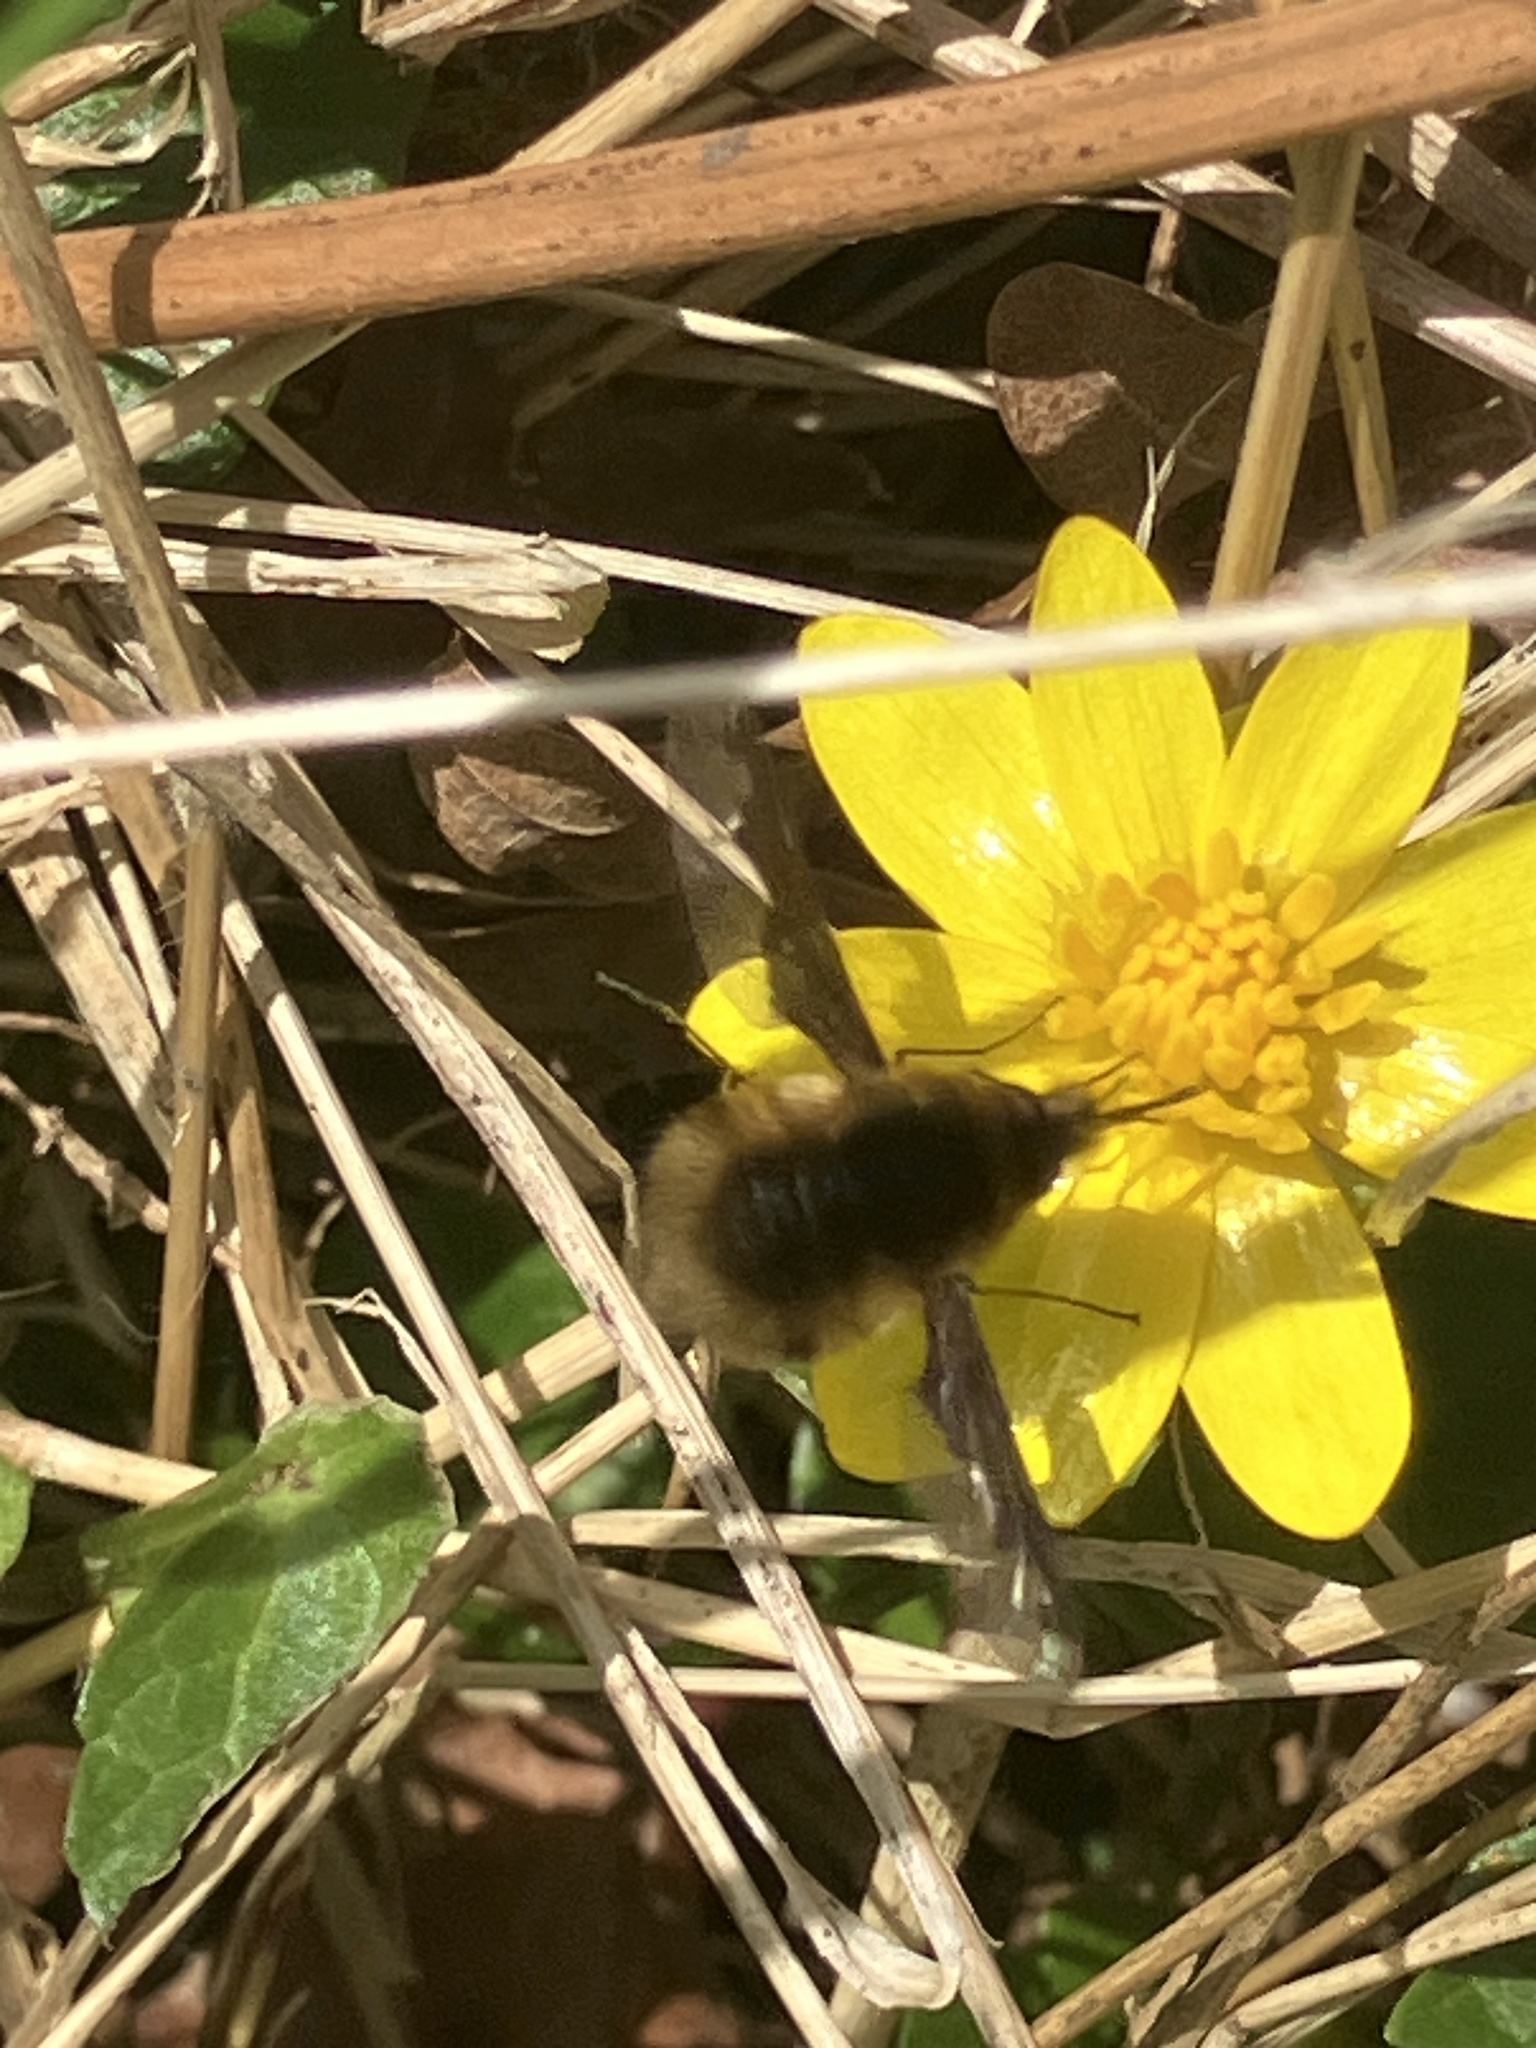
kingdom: Animalia
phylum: Arthropoda
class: Insecta
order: Diptera
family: Bombyliidae
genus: Bombylius
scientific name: Bombylius major
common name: Bee fly
